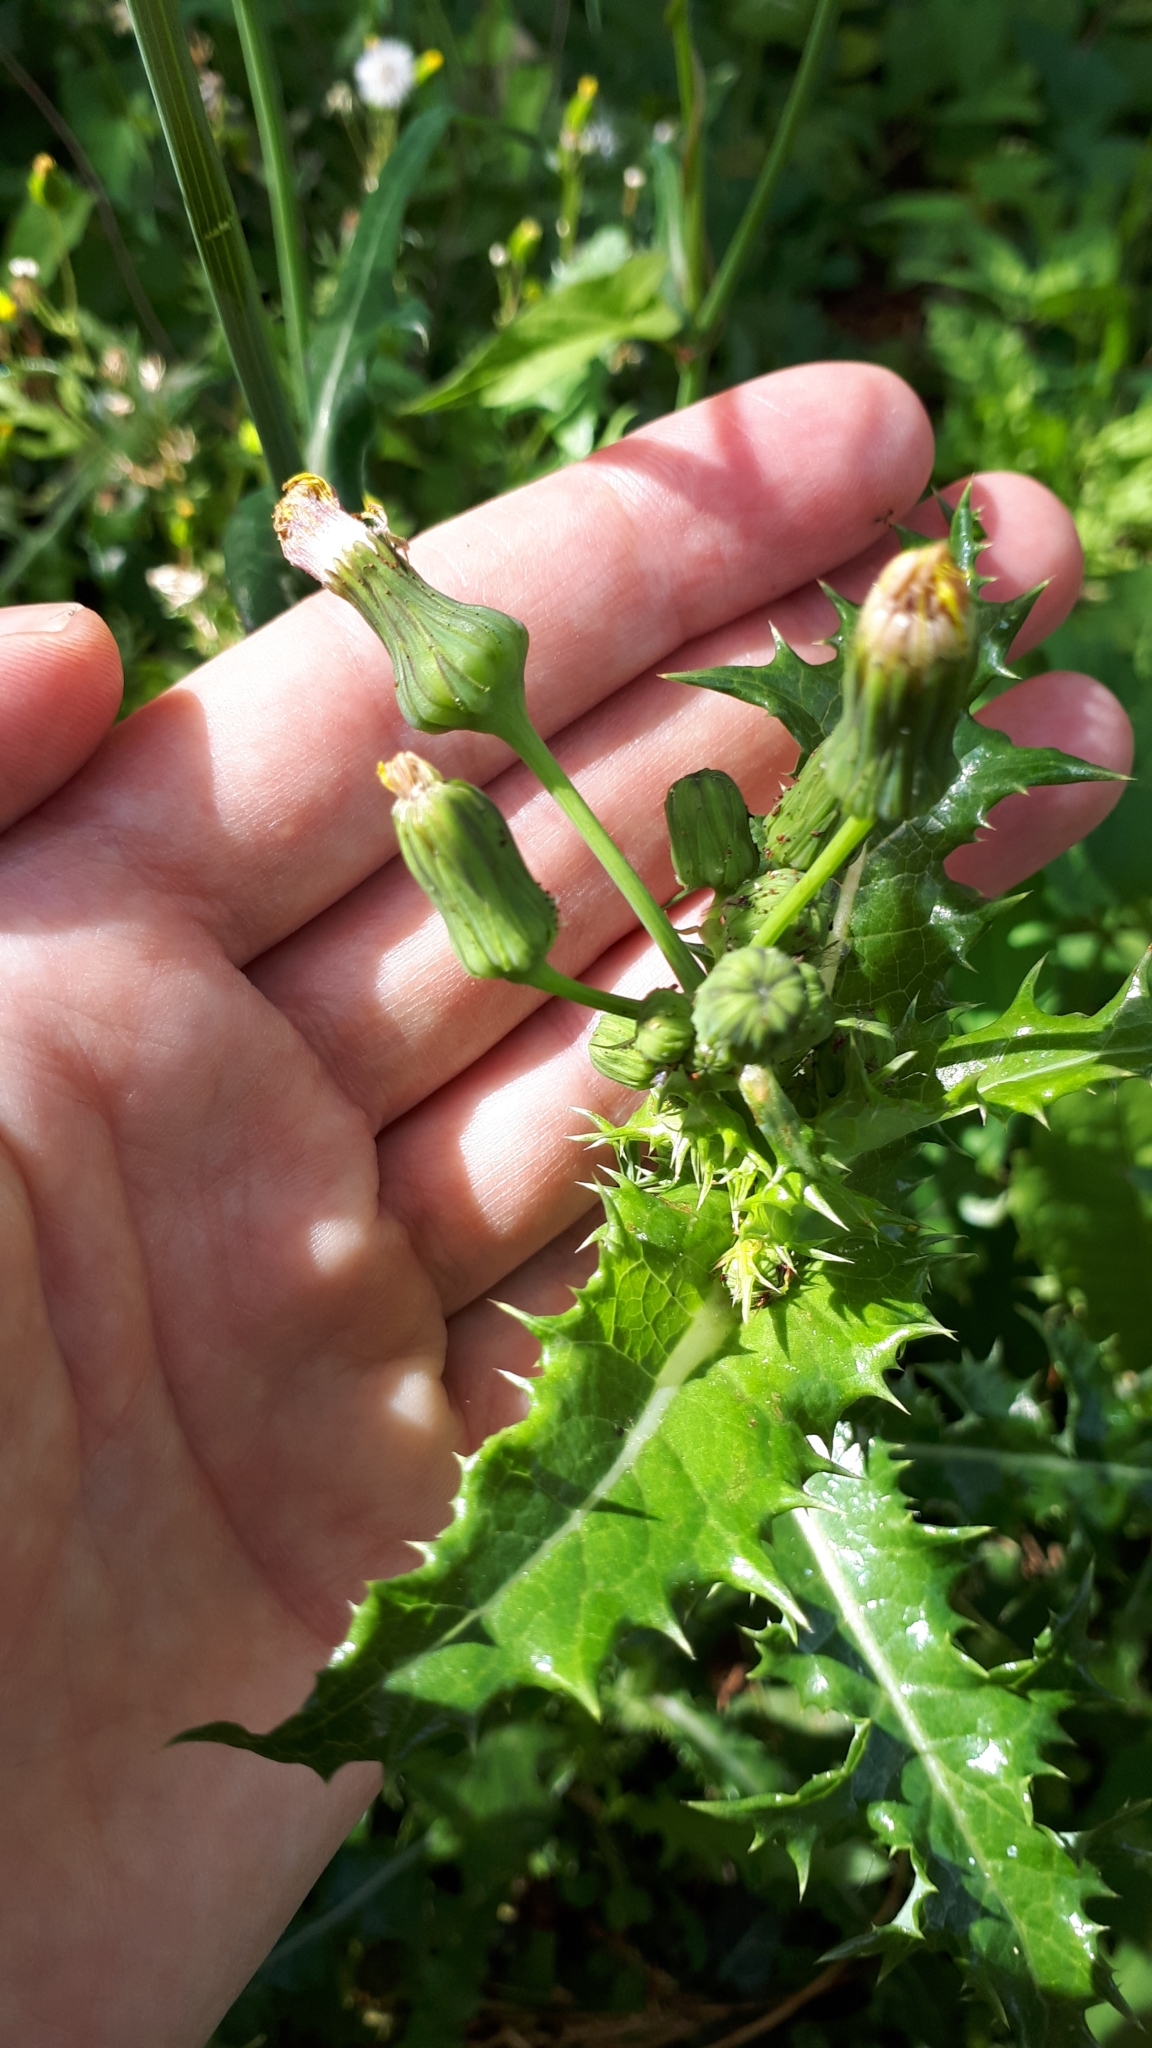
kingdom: Plantae
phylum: Tracheophyta
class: Magnoliopsida
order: Asterales
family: Asteraceae
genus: Sonchus
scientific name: Sonchus asper
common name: Prickly sow-thistle
